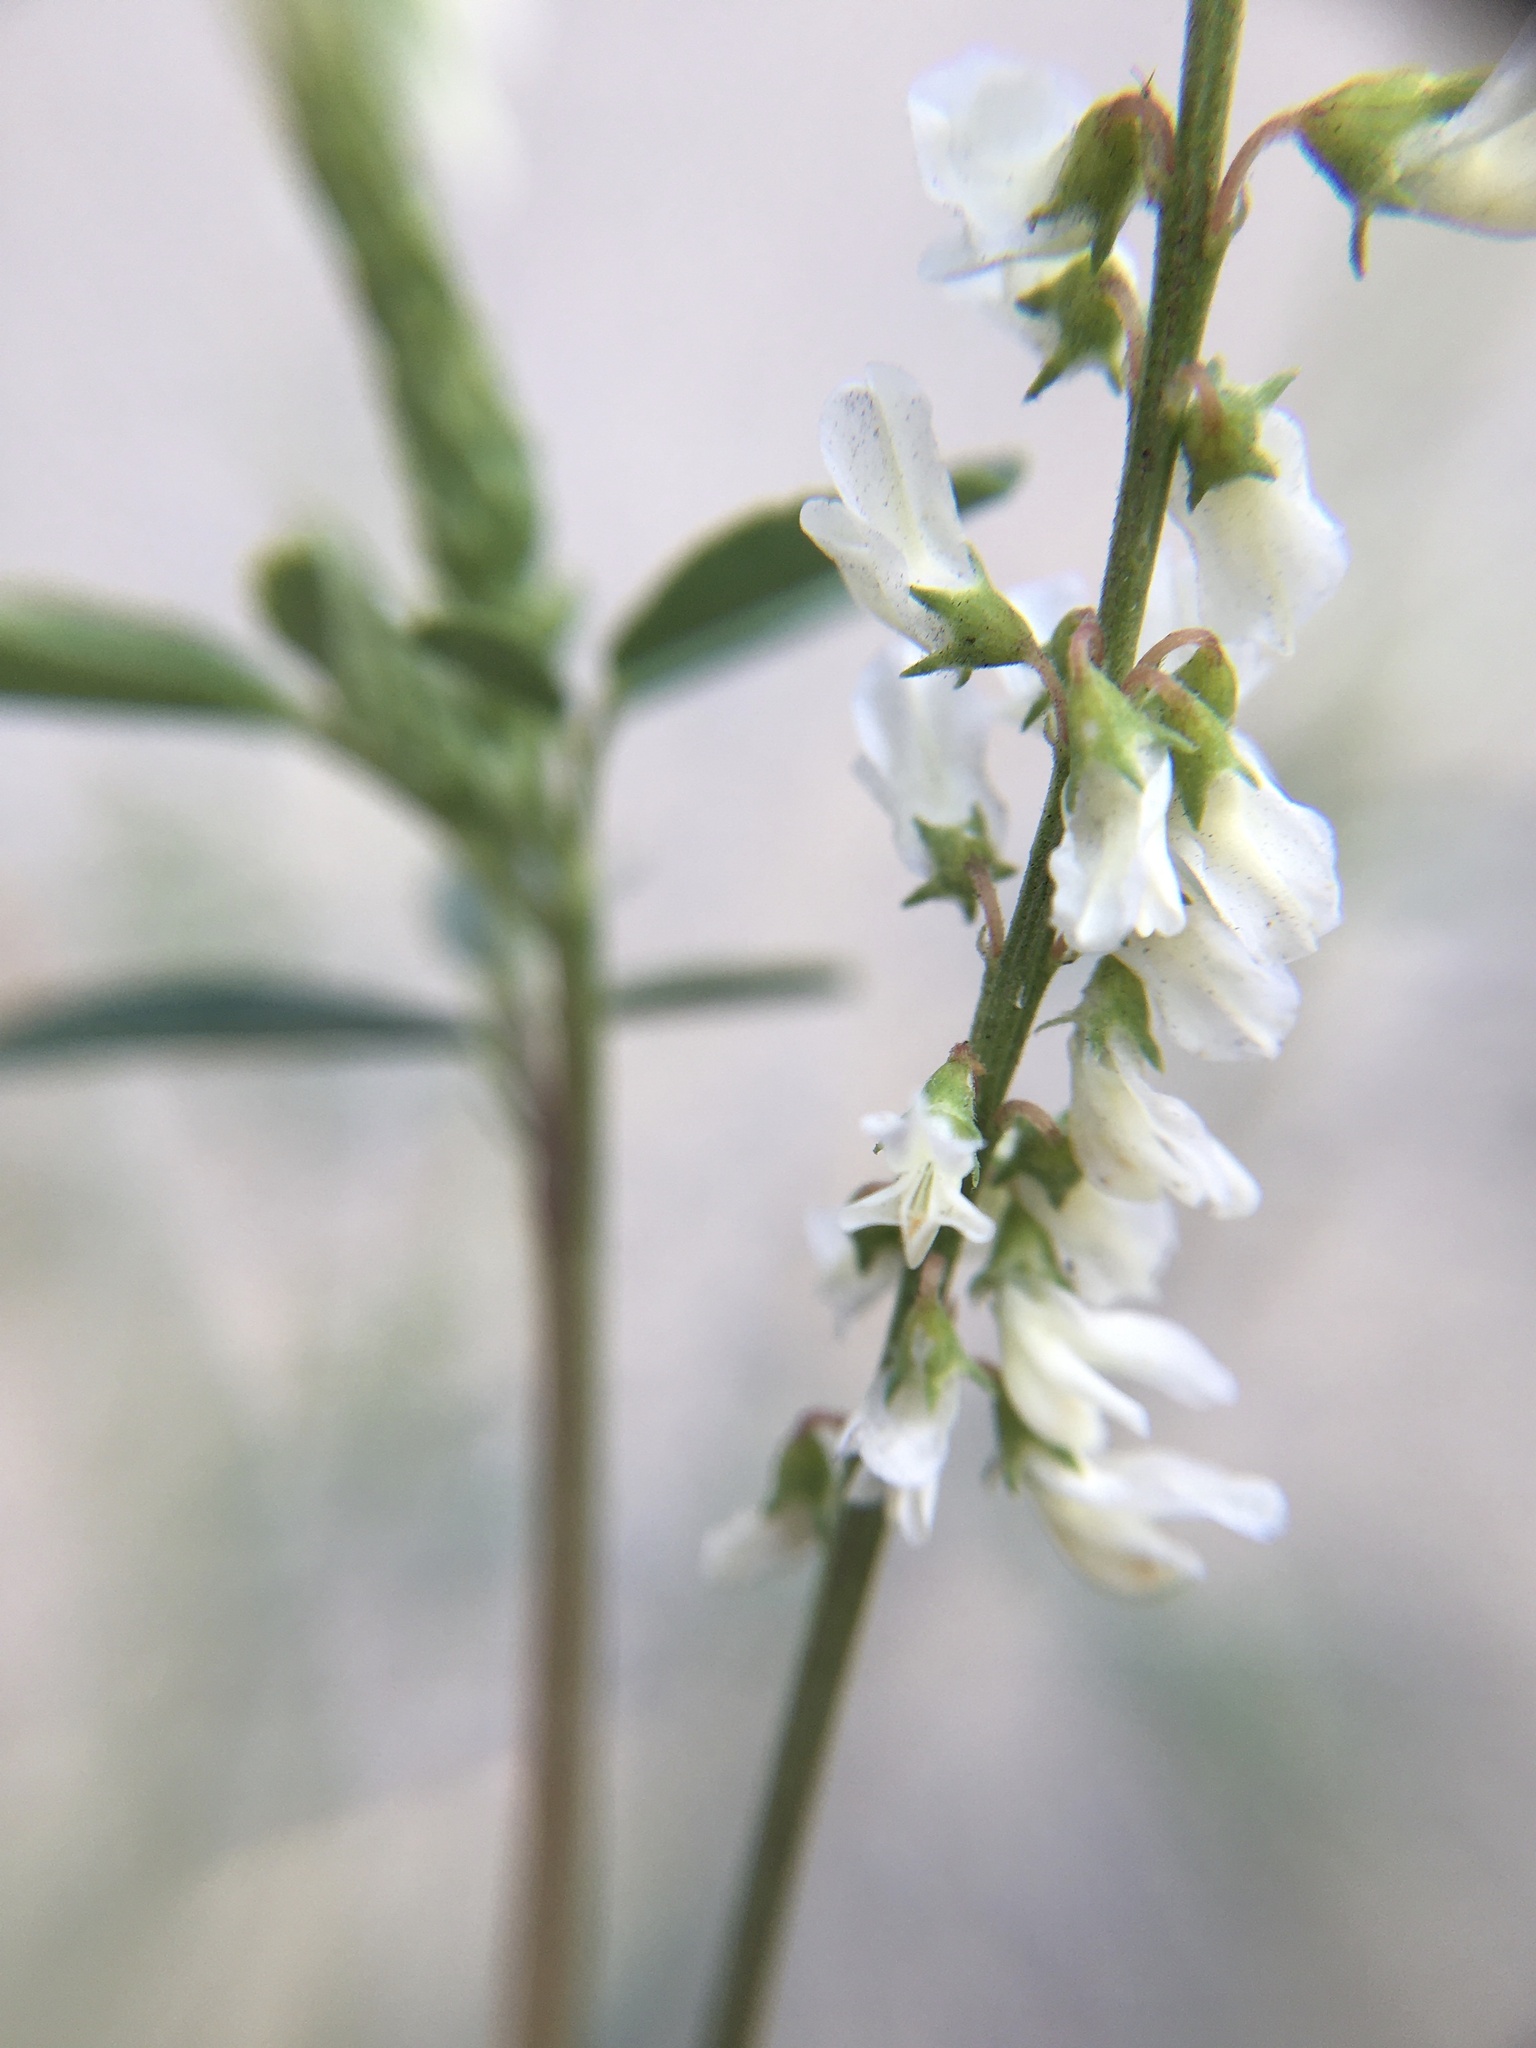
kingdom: Plantae
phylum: Tracheophyta
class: Magnoliopsida
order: Fabales
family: Fabaceae
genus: Melilotus
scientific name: Melilotus albus
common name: White melilot
